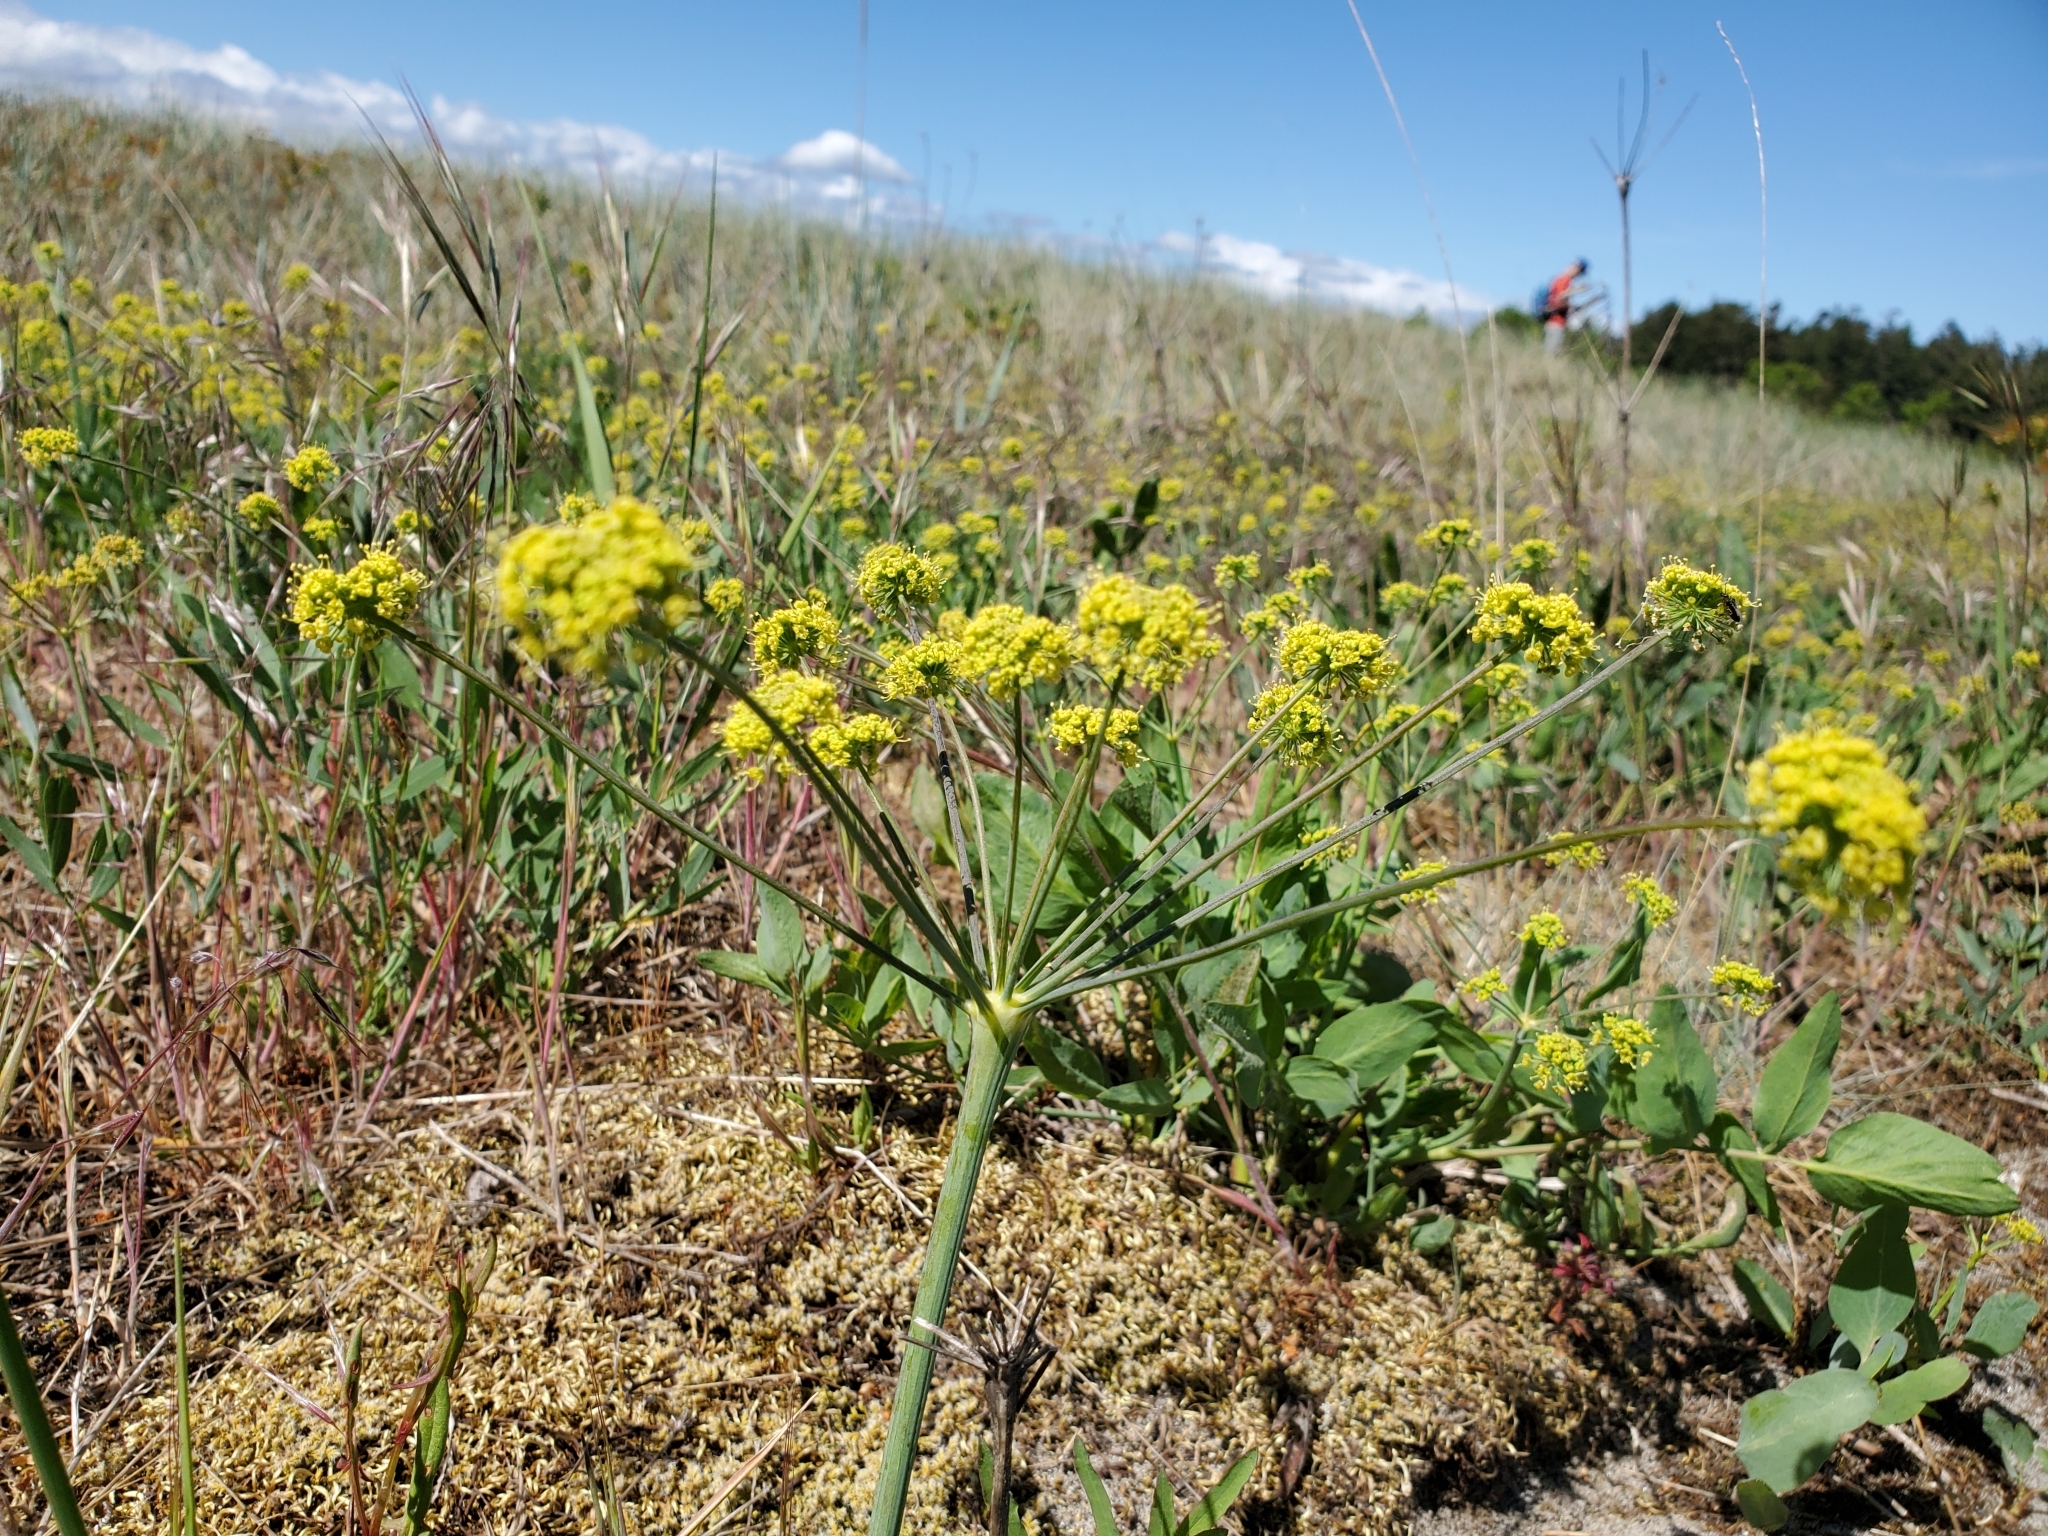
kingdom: Plantae
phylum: Tracheophyta
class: Magnoliopsida
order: Apiales
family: Apiaceae
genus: Lomatium
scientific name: Lomatium nudicaule
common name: Pestle lomatium
